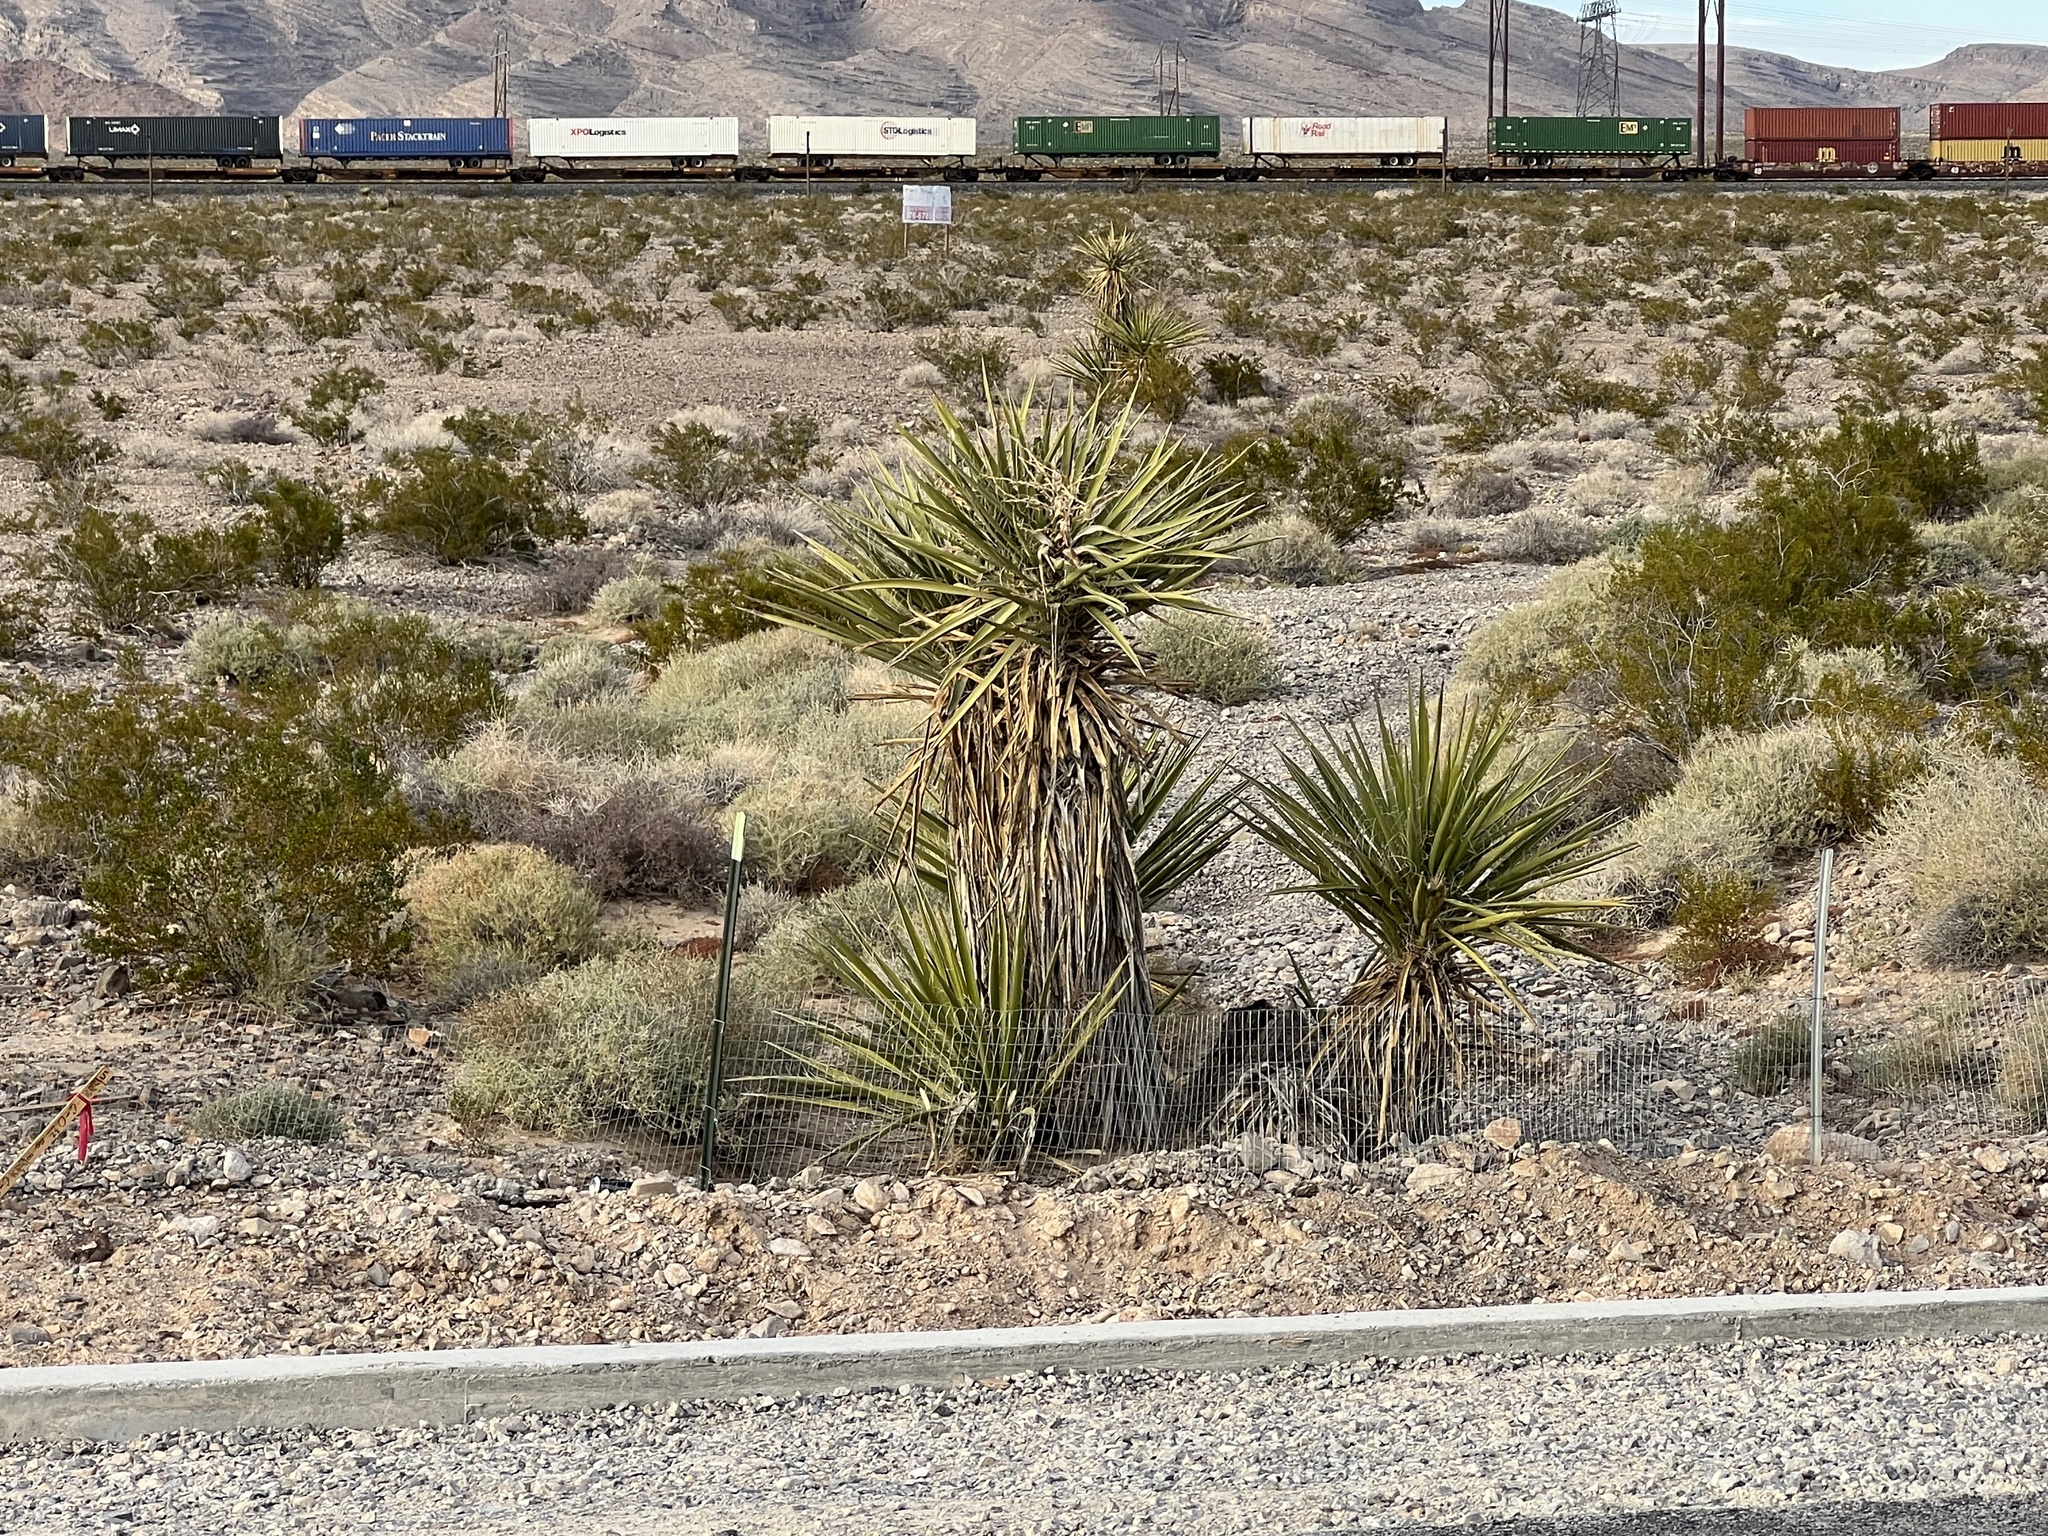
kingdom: Plantae
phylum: Tracheophyta
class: Liliopsida
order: Asparagales
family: Asparagaceae
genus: Yucca
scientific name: Yucca schidigera
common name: Mojave yucca
